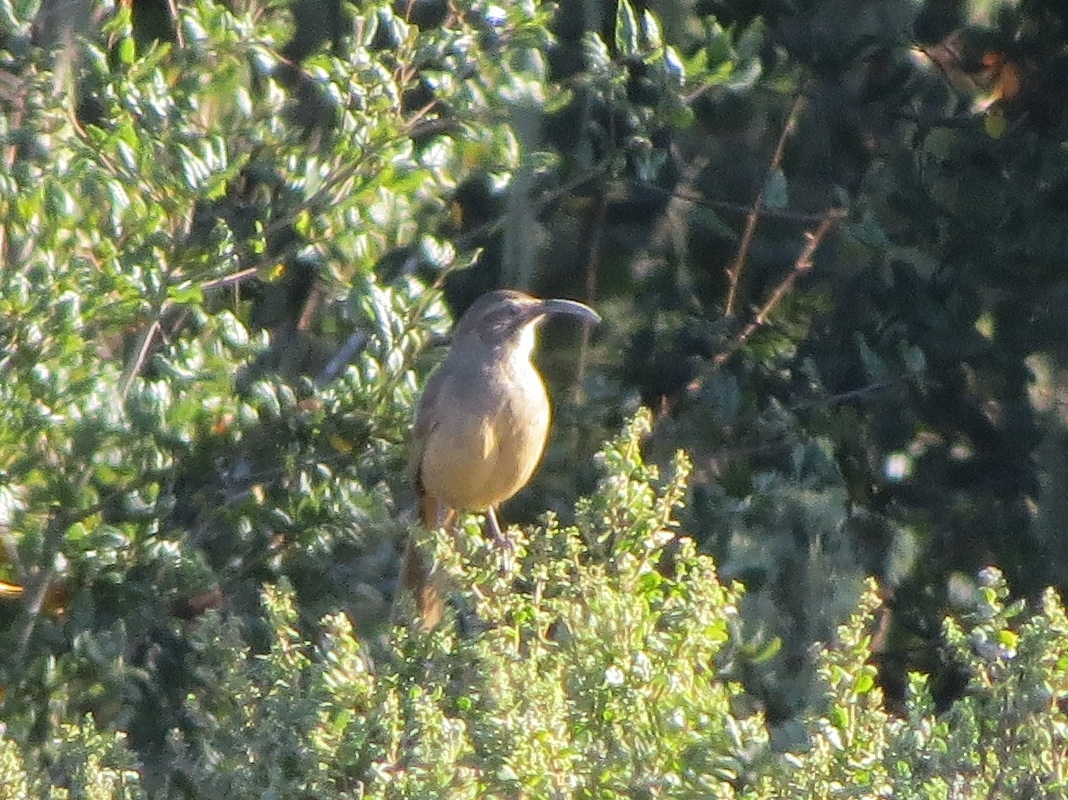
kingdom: Animalia
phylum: Chordata
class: Aves
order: Passeriformes
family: Mimidae
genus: Toxostoma
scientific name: Toxostoma redivivum
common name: California thrasher
